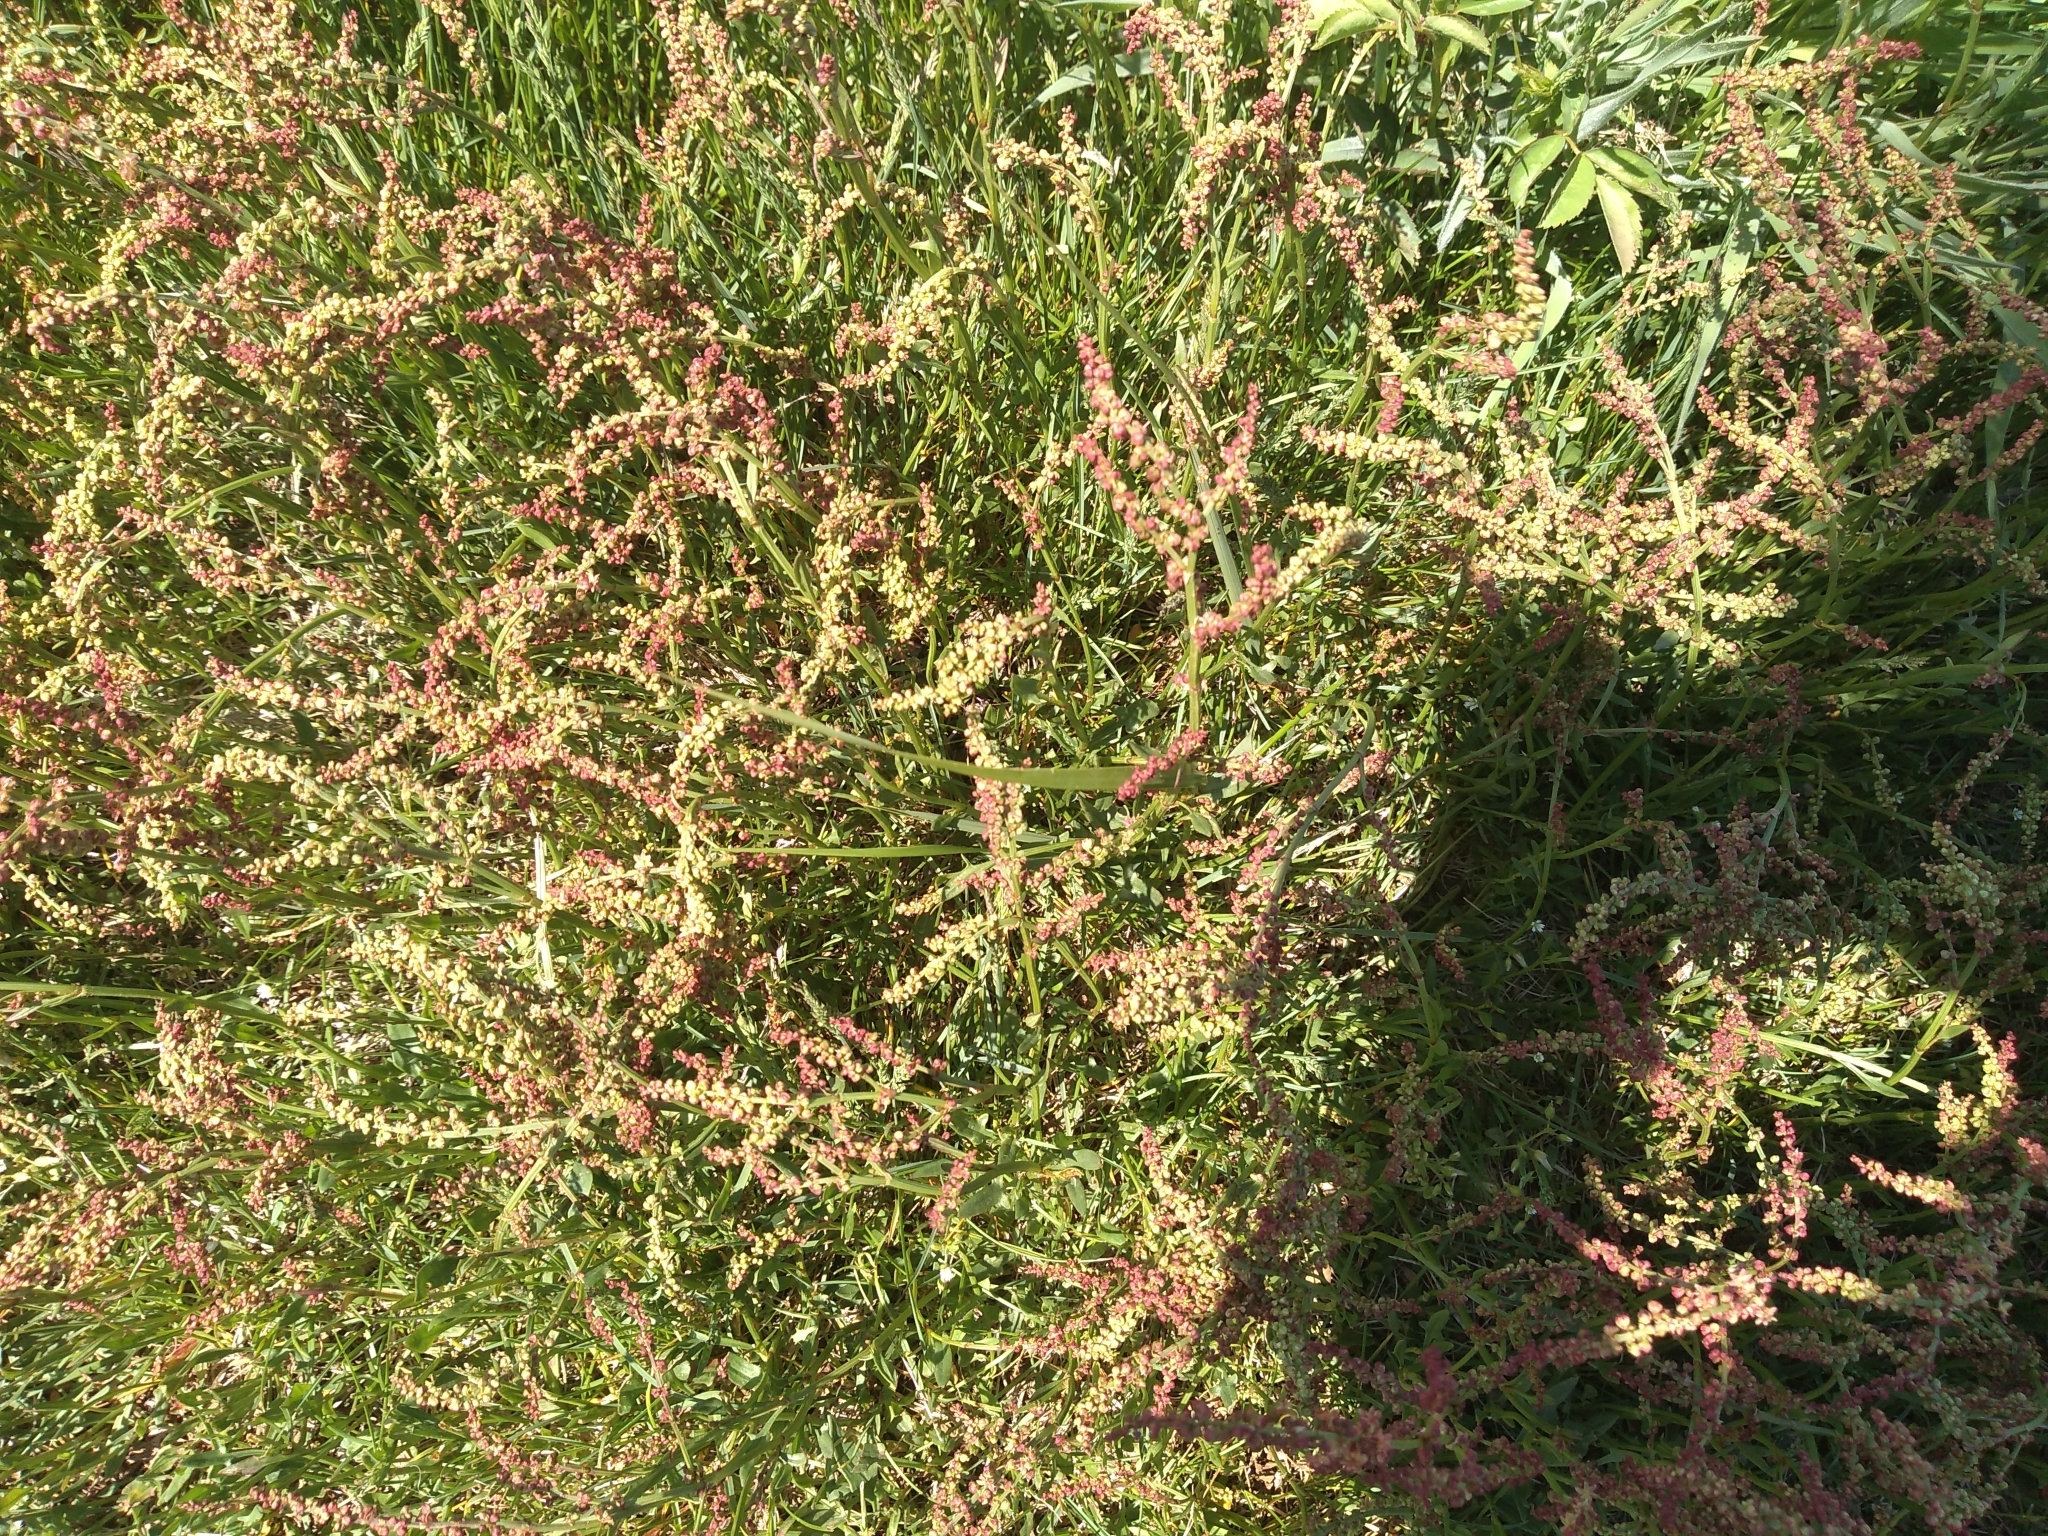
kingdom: Plantae
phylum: Tracheophyta
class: Magnoliopsida
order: Caryophyllales
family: Polygonaceae
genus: Rumex
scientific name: Rumex acetosella
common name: Common sheep sorrel
